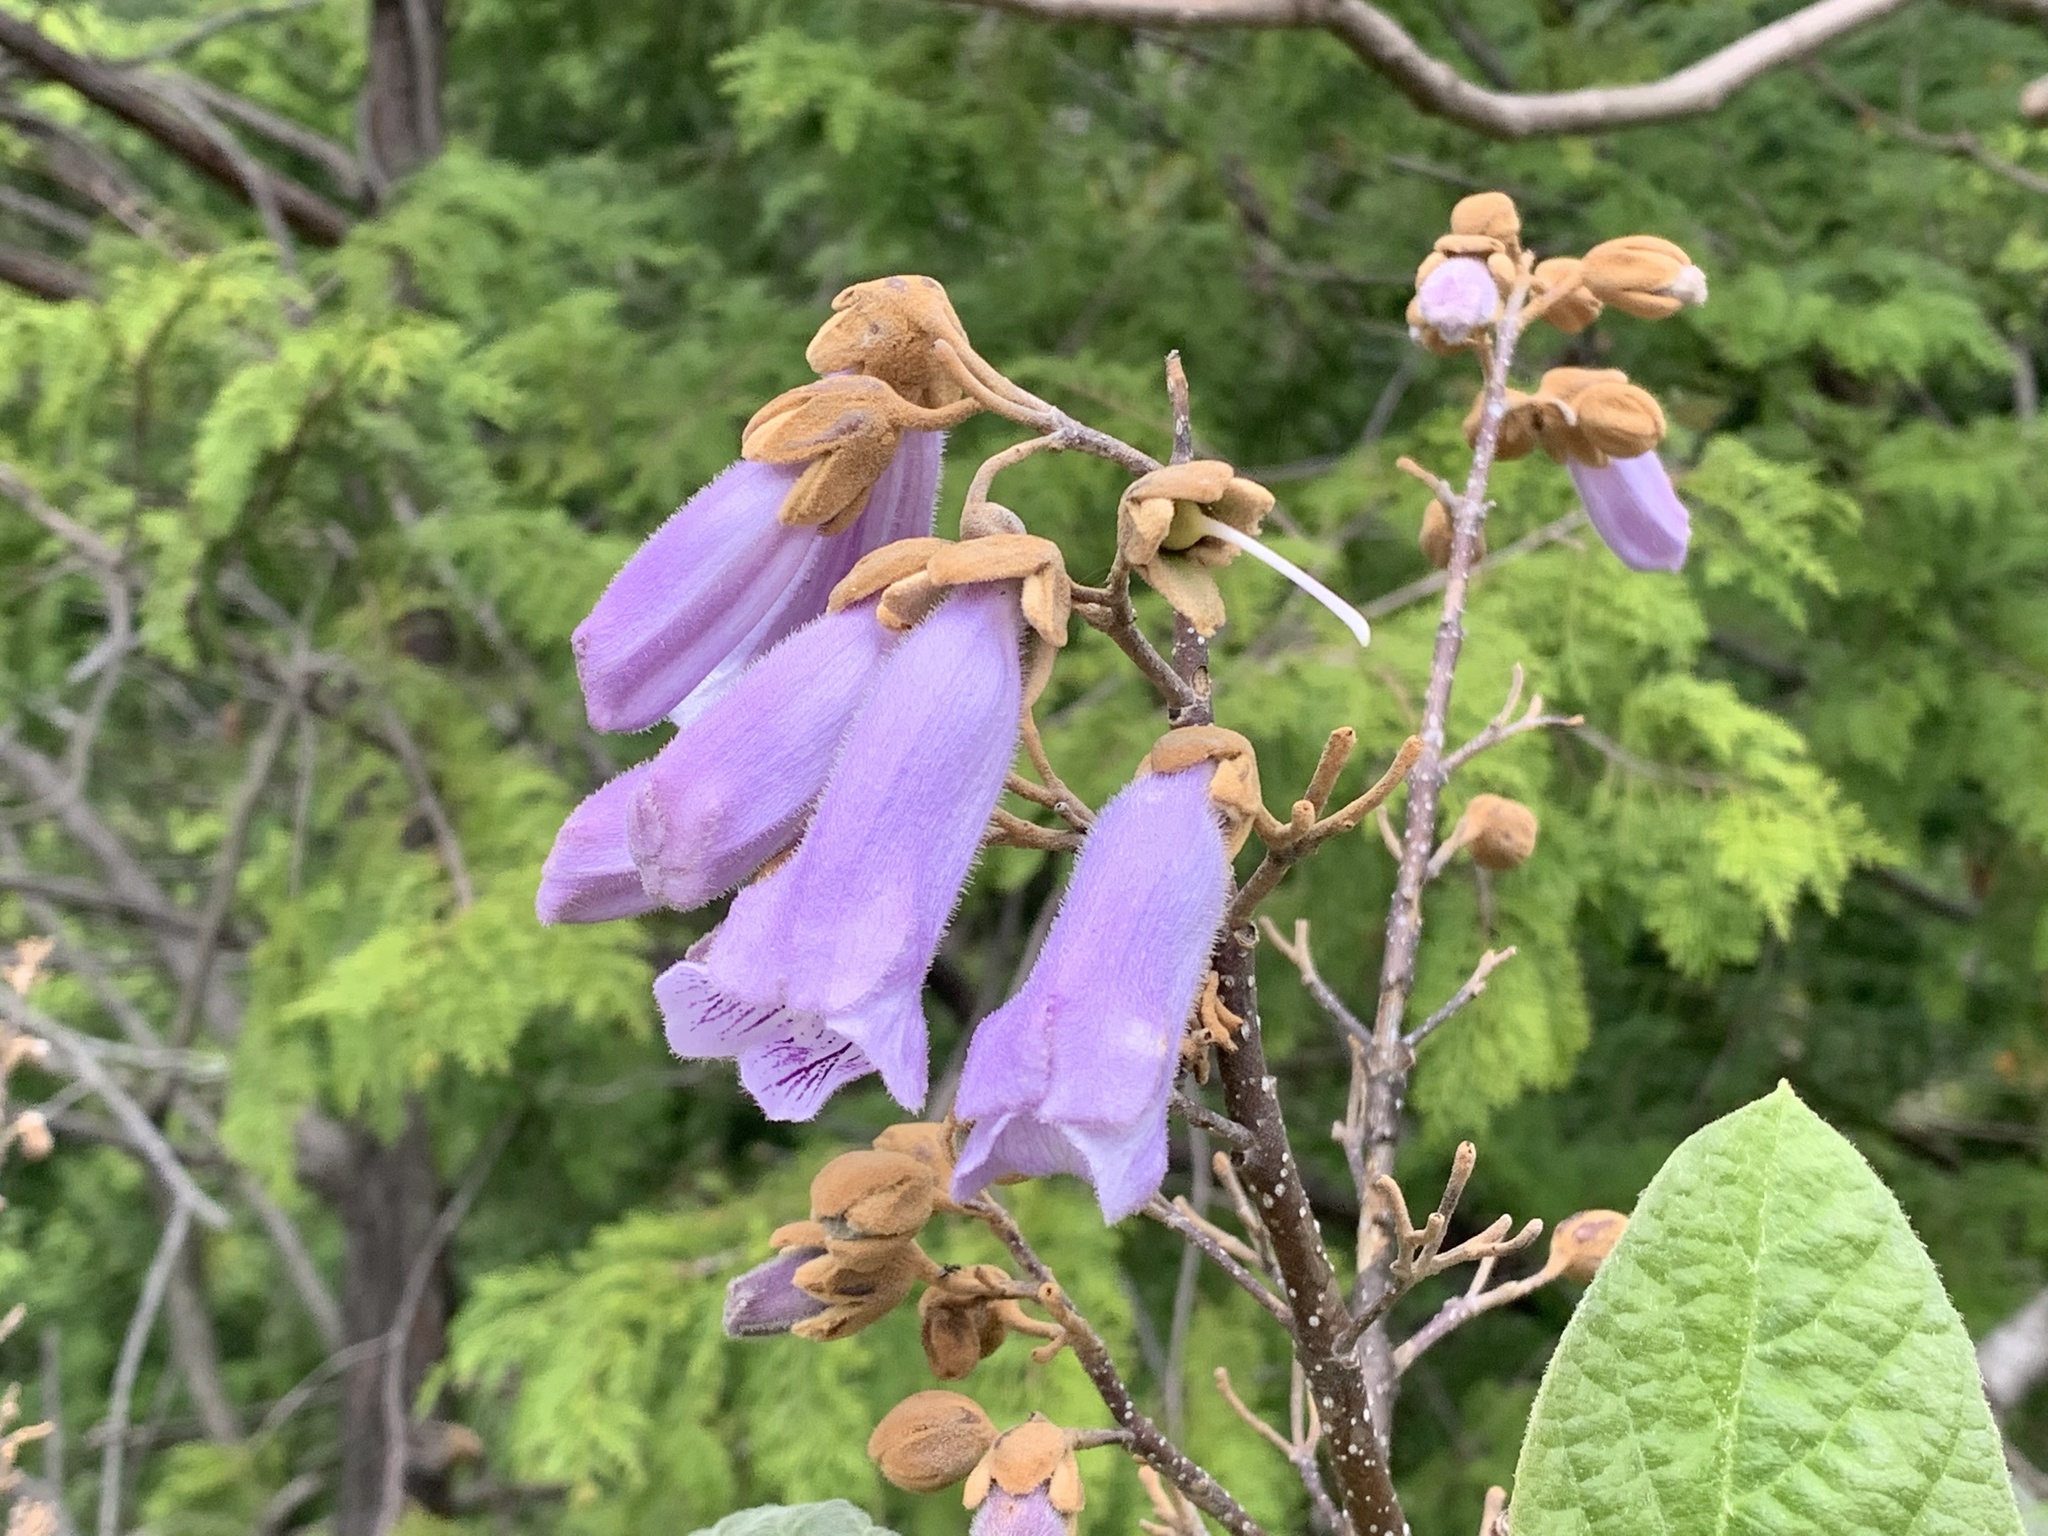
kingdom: Plantae
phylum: Tracheophyta
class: Magnoliopsida
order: Lamiales
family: Paulowniaceae
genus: Paulownia
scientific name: Paulownia tomentosa
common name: Foxglove-tree
